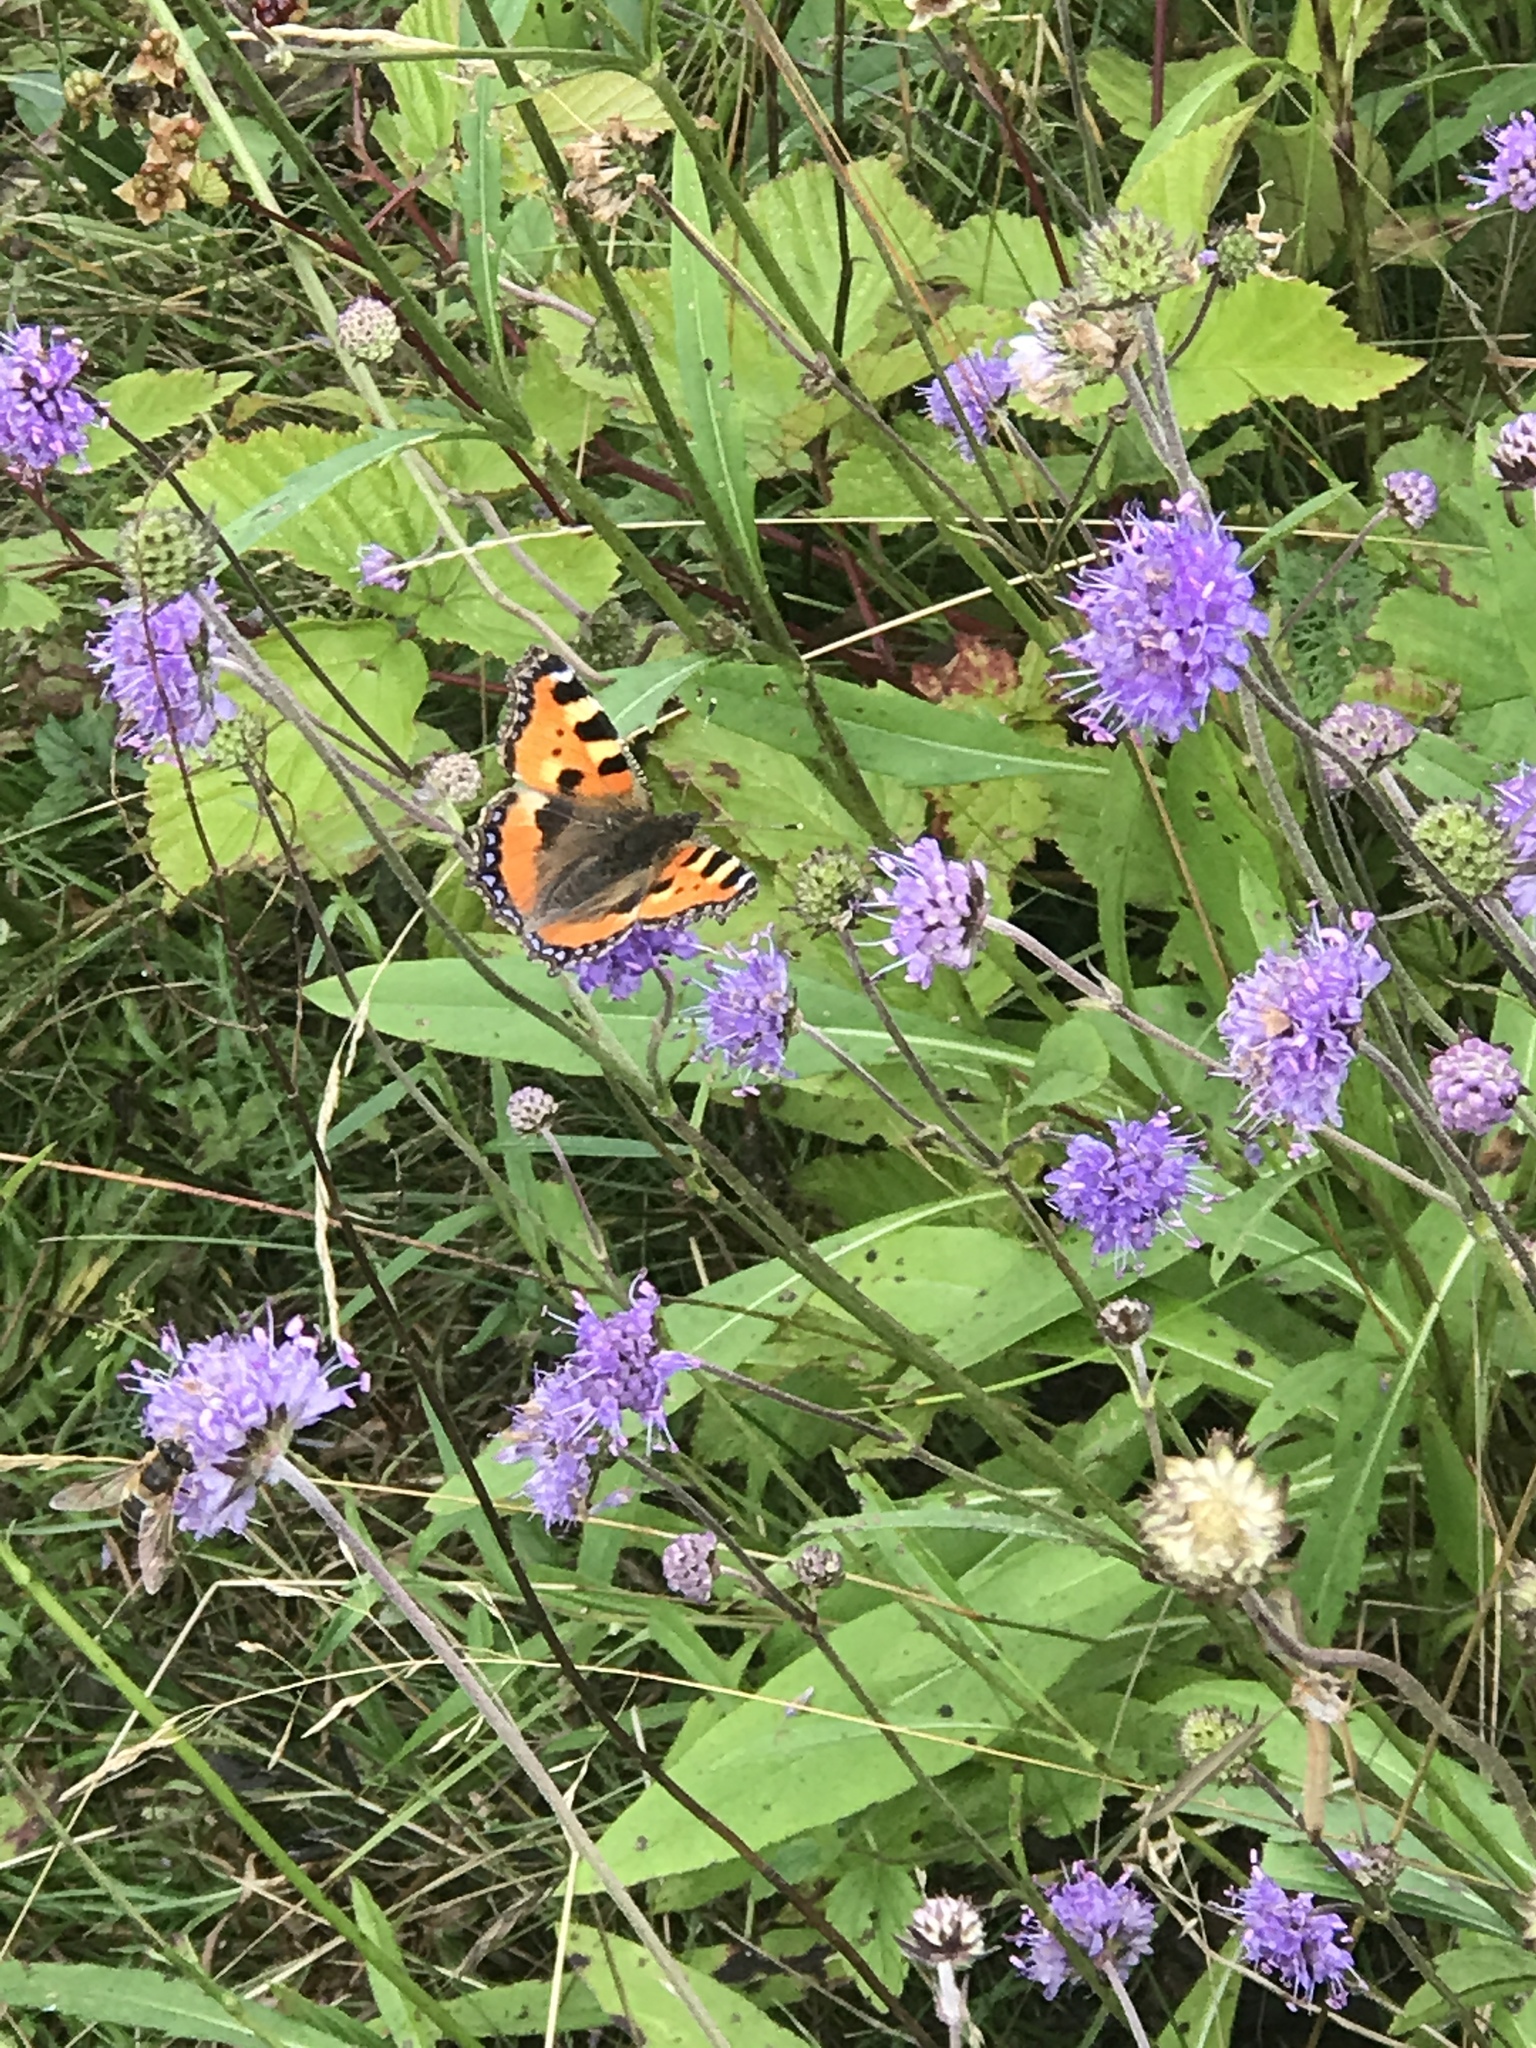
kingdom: Animalia
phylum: Arthropoda
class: Insecta
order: Lepidoptera
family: Nymphalidae
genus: Aglais
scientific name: Aglais urticae
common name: Small tortoiseshell
